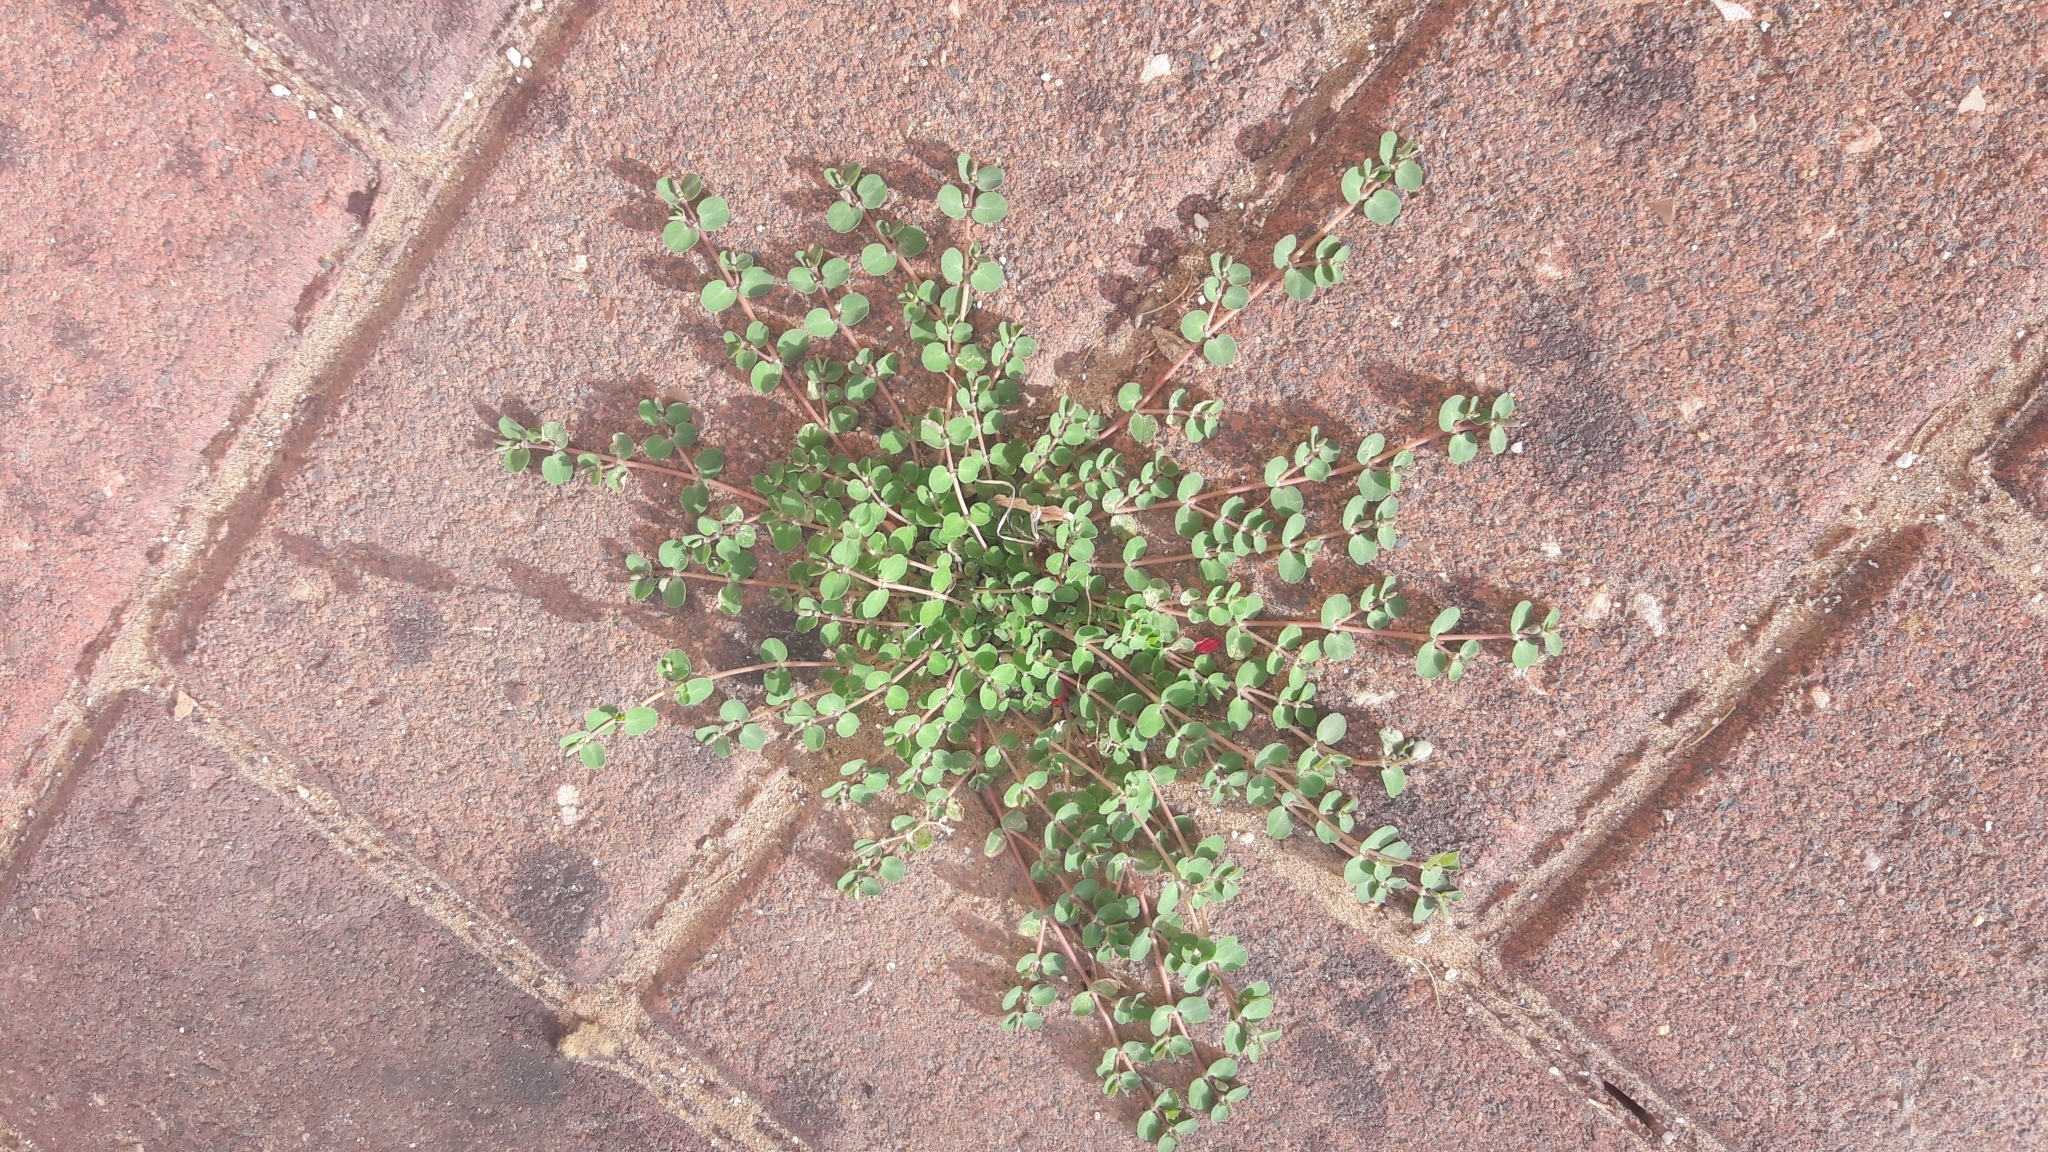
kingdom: Plantae
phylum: Tracheophyta
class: Magnoliopsida
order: Malpighiales
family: Euphorbiaceae
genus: Euphorbia
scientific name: Euphorbia serpens
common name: Matted sandmat
